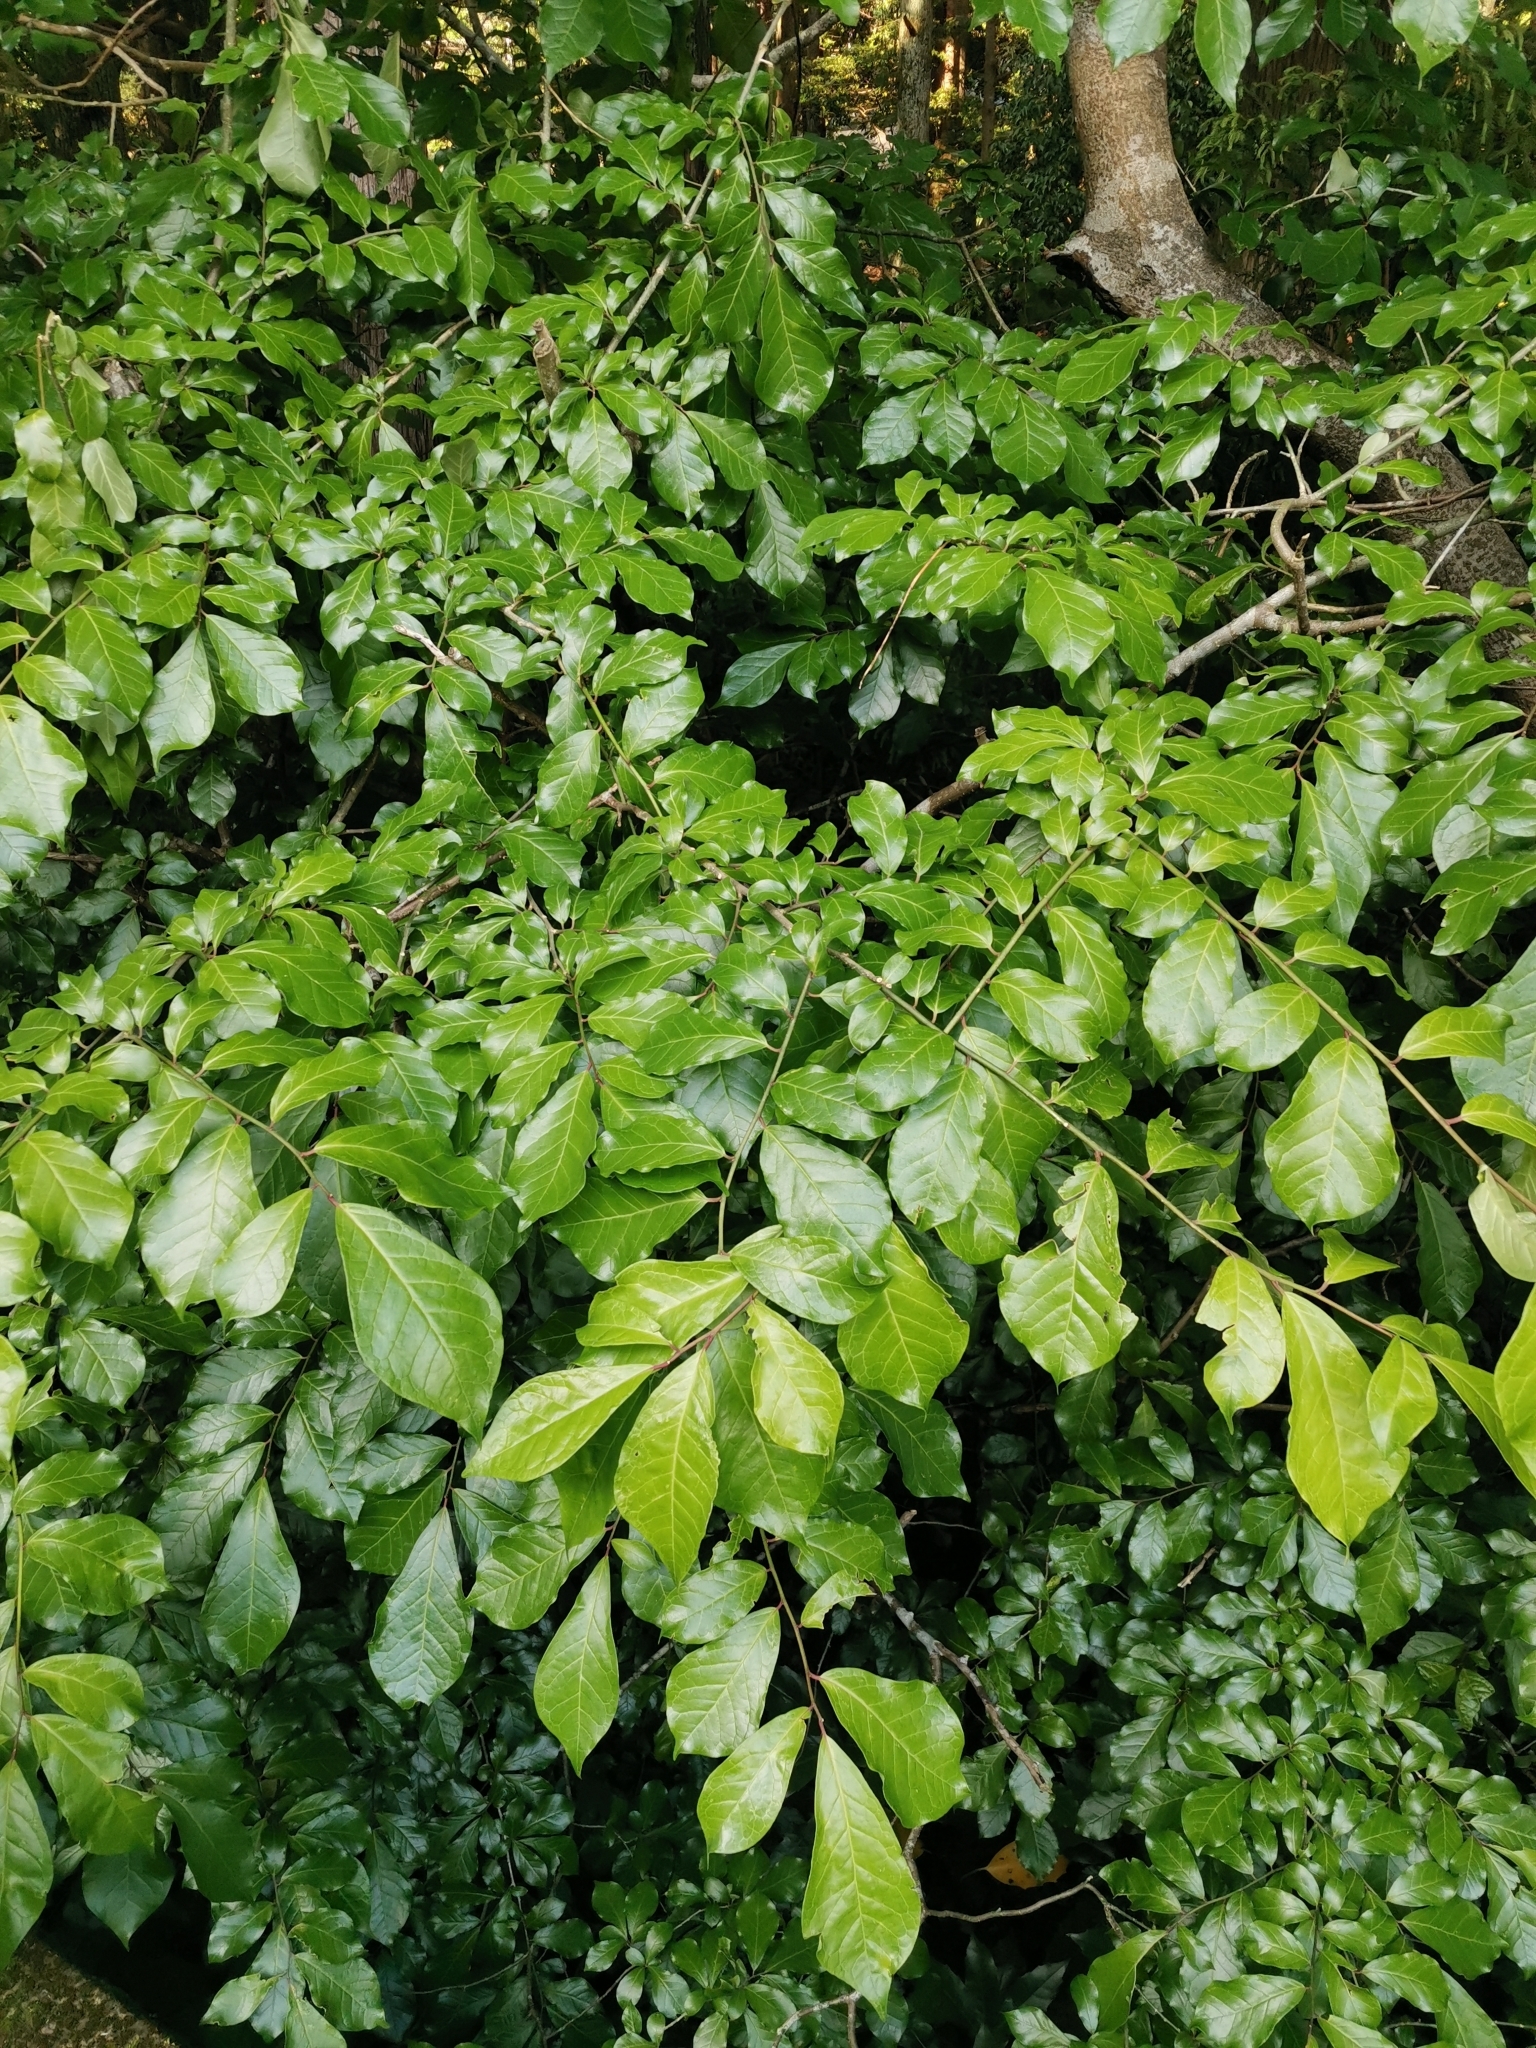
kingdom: Plantae
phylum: Tracheophyta
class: Magnoliopsida
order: Sapindales
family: Rutaceae
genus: Orixa
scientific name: Orixa japonica
